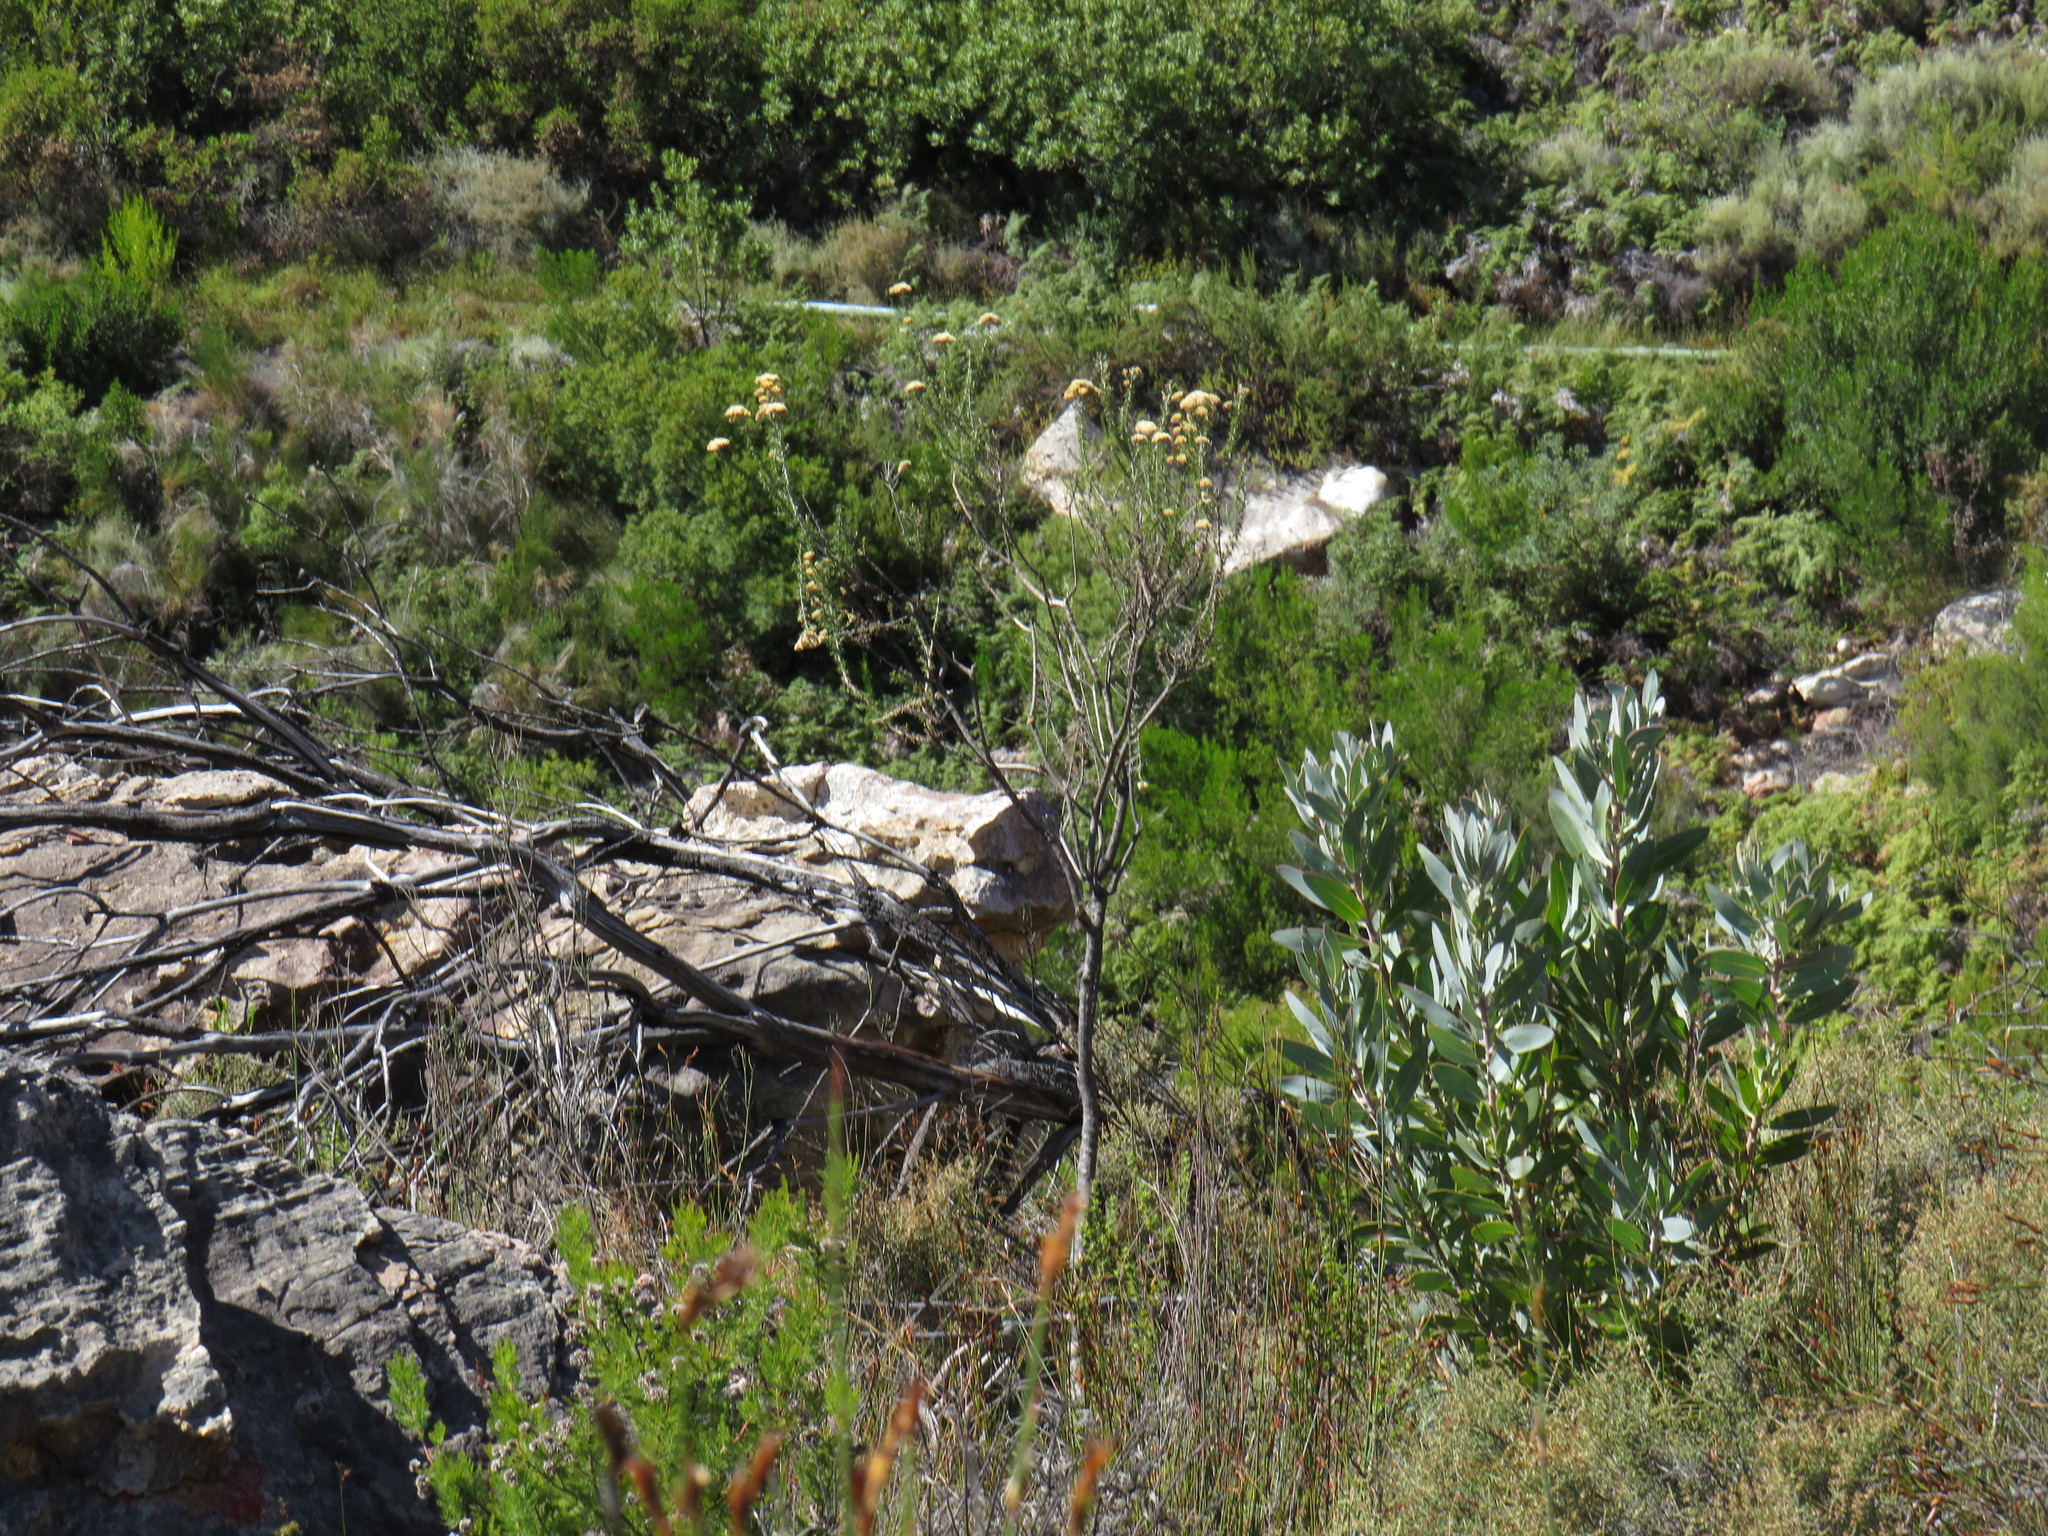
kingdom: Plantae
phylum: Tracheophyta
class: Magnoliopsida
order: Asterales
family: Asteraceae
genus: Metalasia
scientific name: Metalasia dregeana
